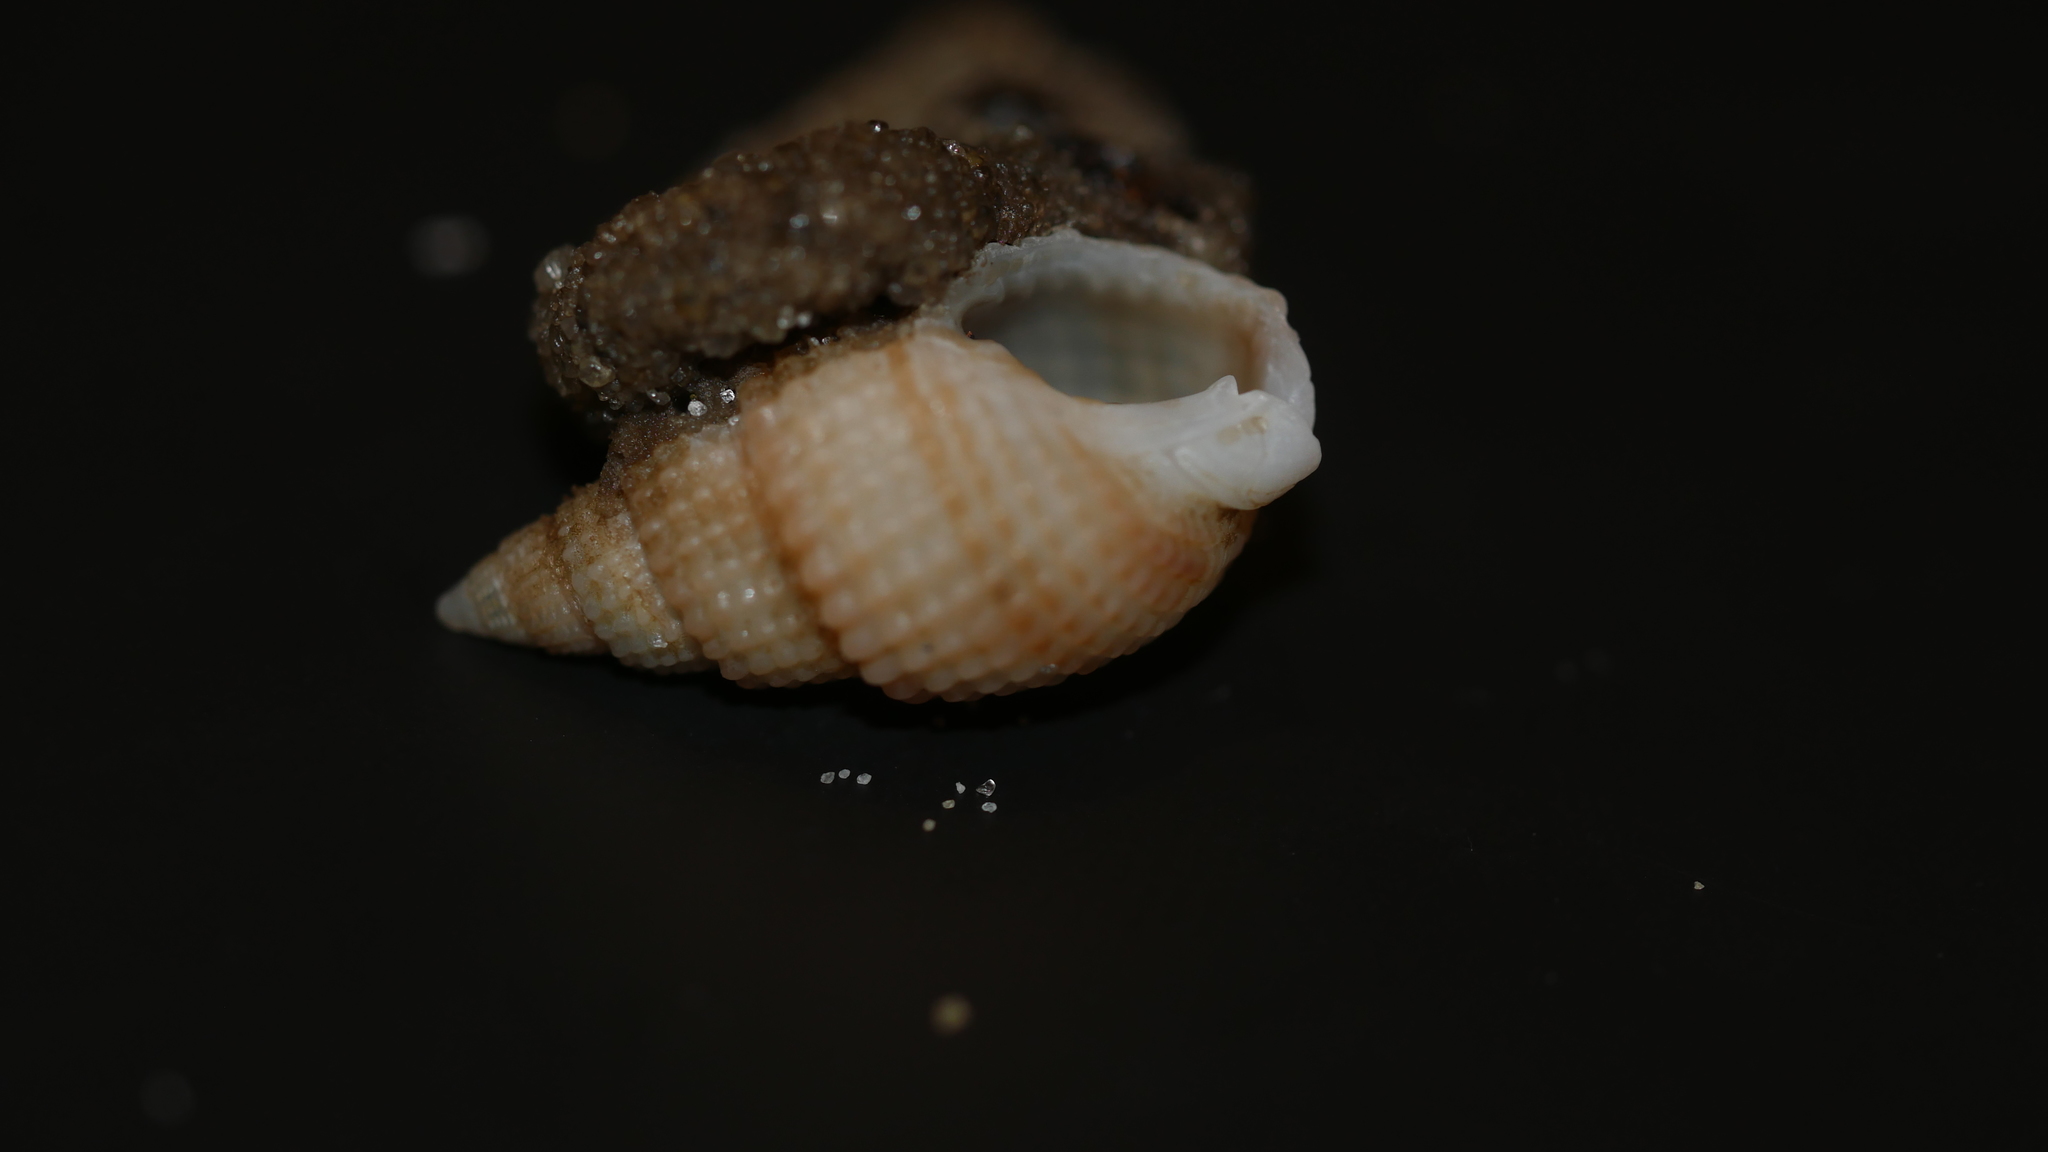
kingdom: Animalia
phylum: Mollusca
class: Gastropoda
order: Neogastropoda
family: Nassariidae
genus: Ilyanassa
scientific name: Ilyanassa trivittata
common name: Three-line mudsnail
